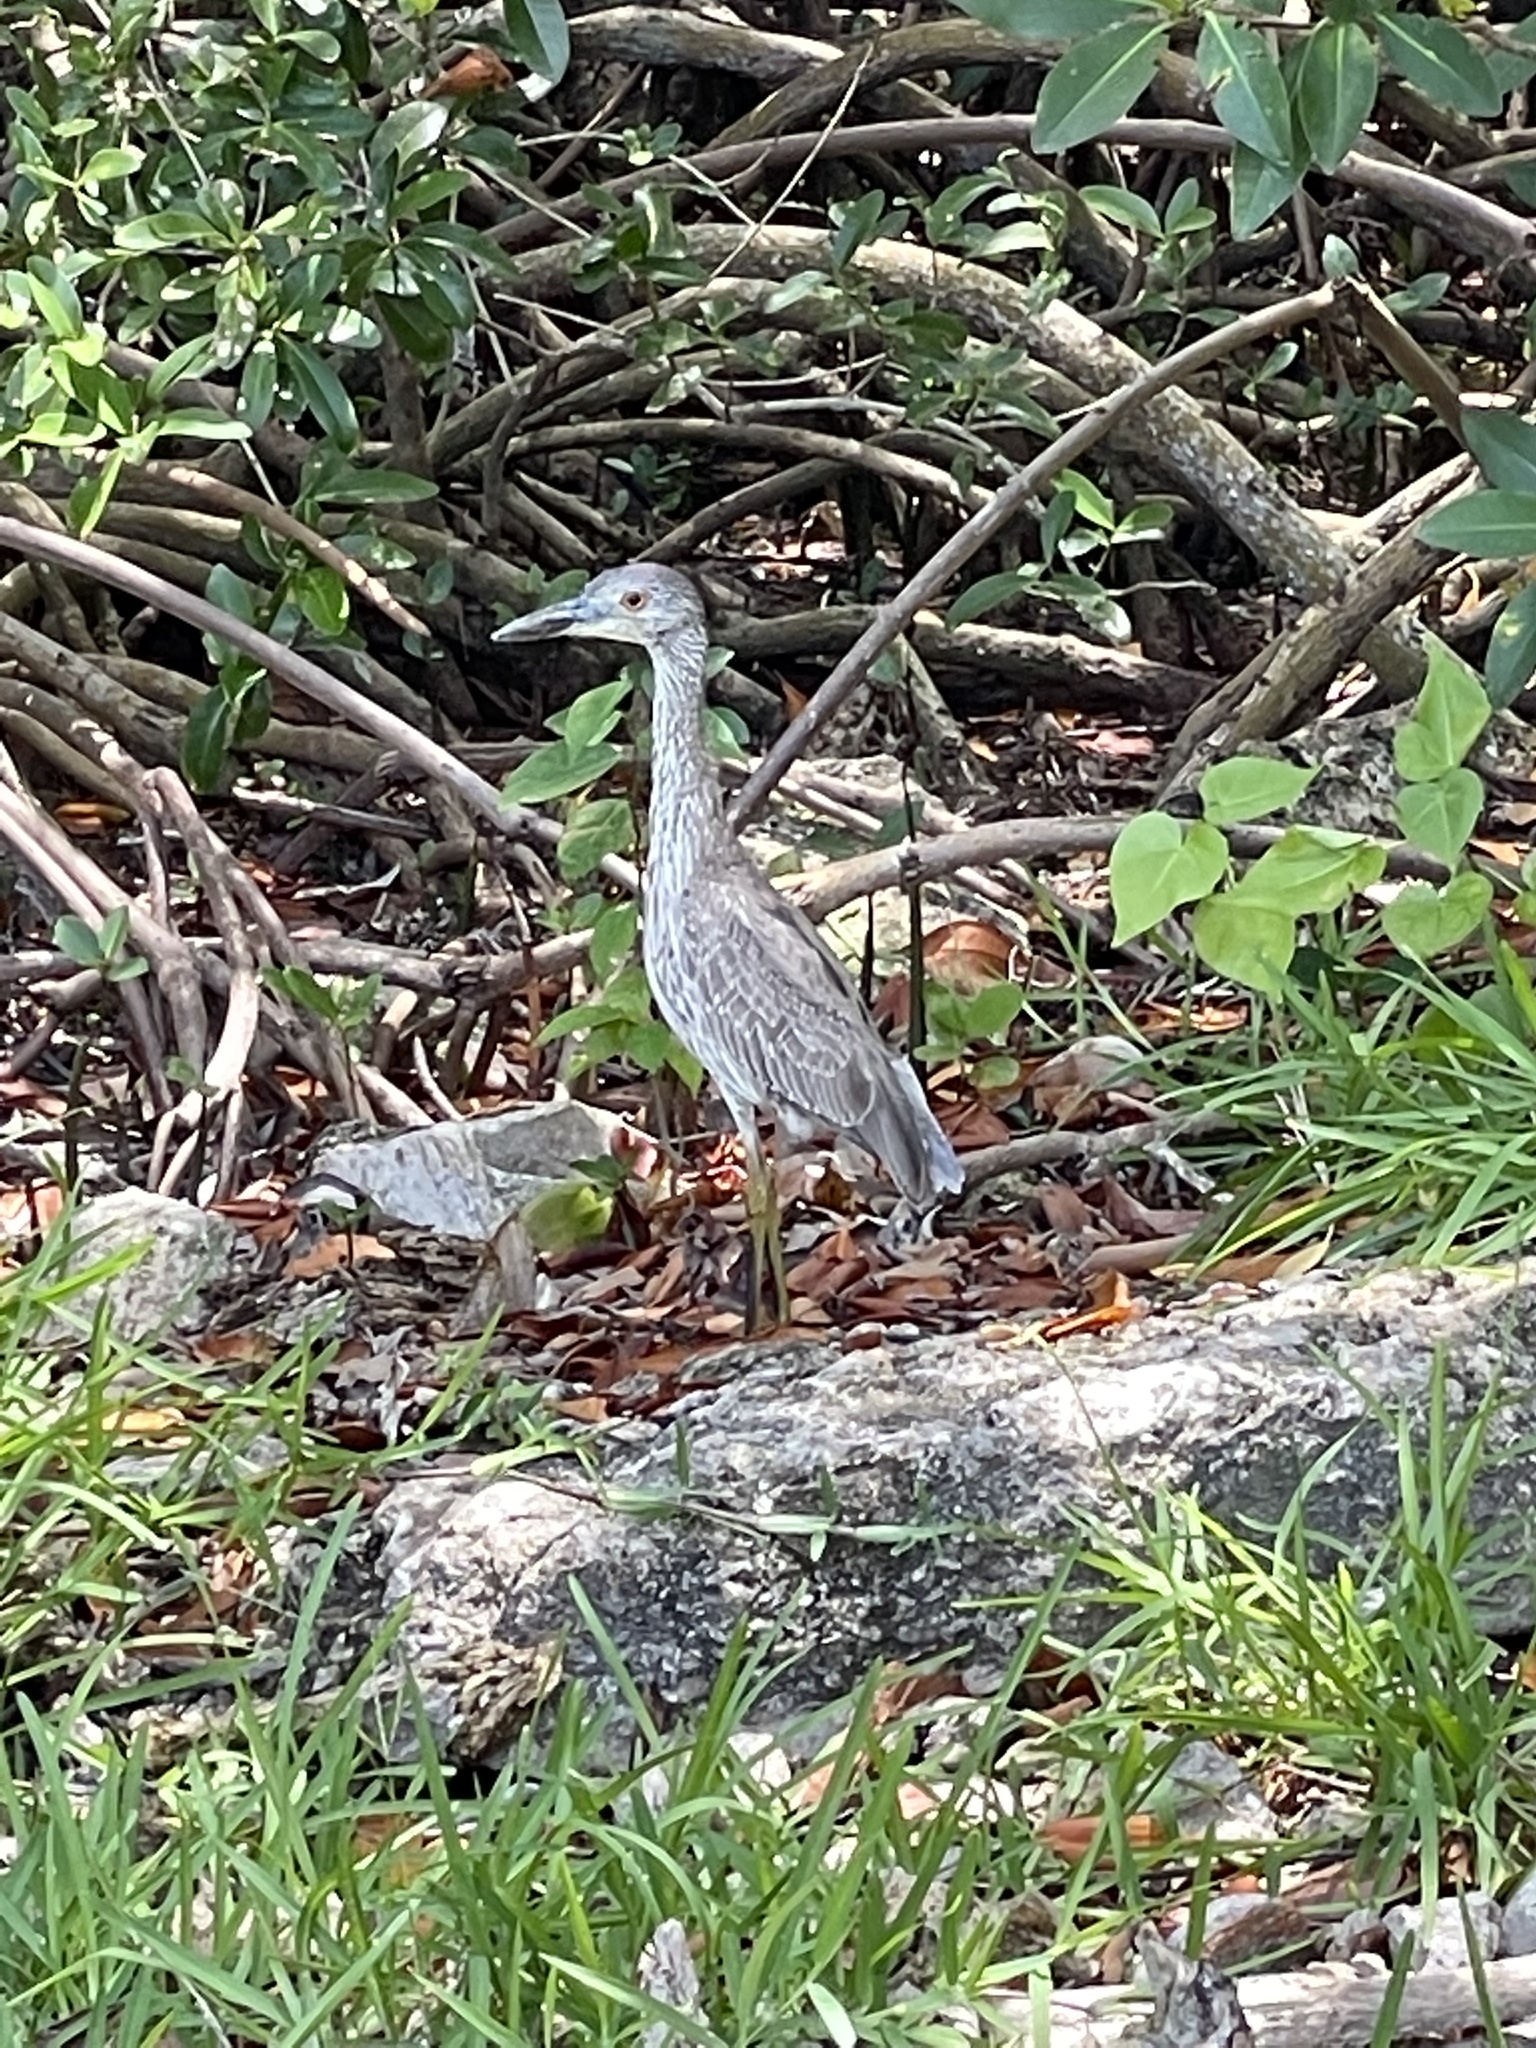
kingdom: Animalia
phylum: Chordata
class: Aves
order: Pelecaniformes
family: Ardeidae
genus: Nyctanassa
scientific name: Nyctanassa violacea
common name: Yellow-crowned night heron
